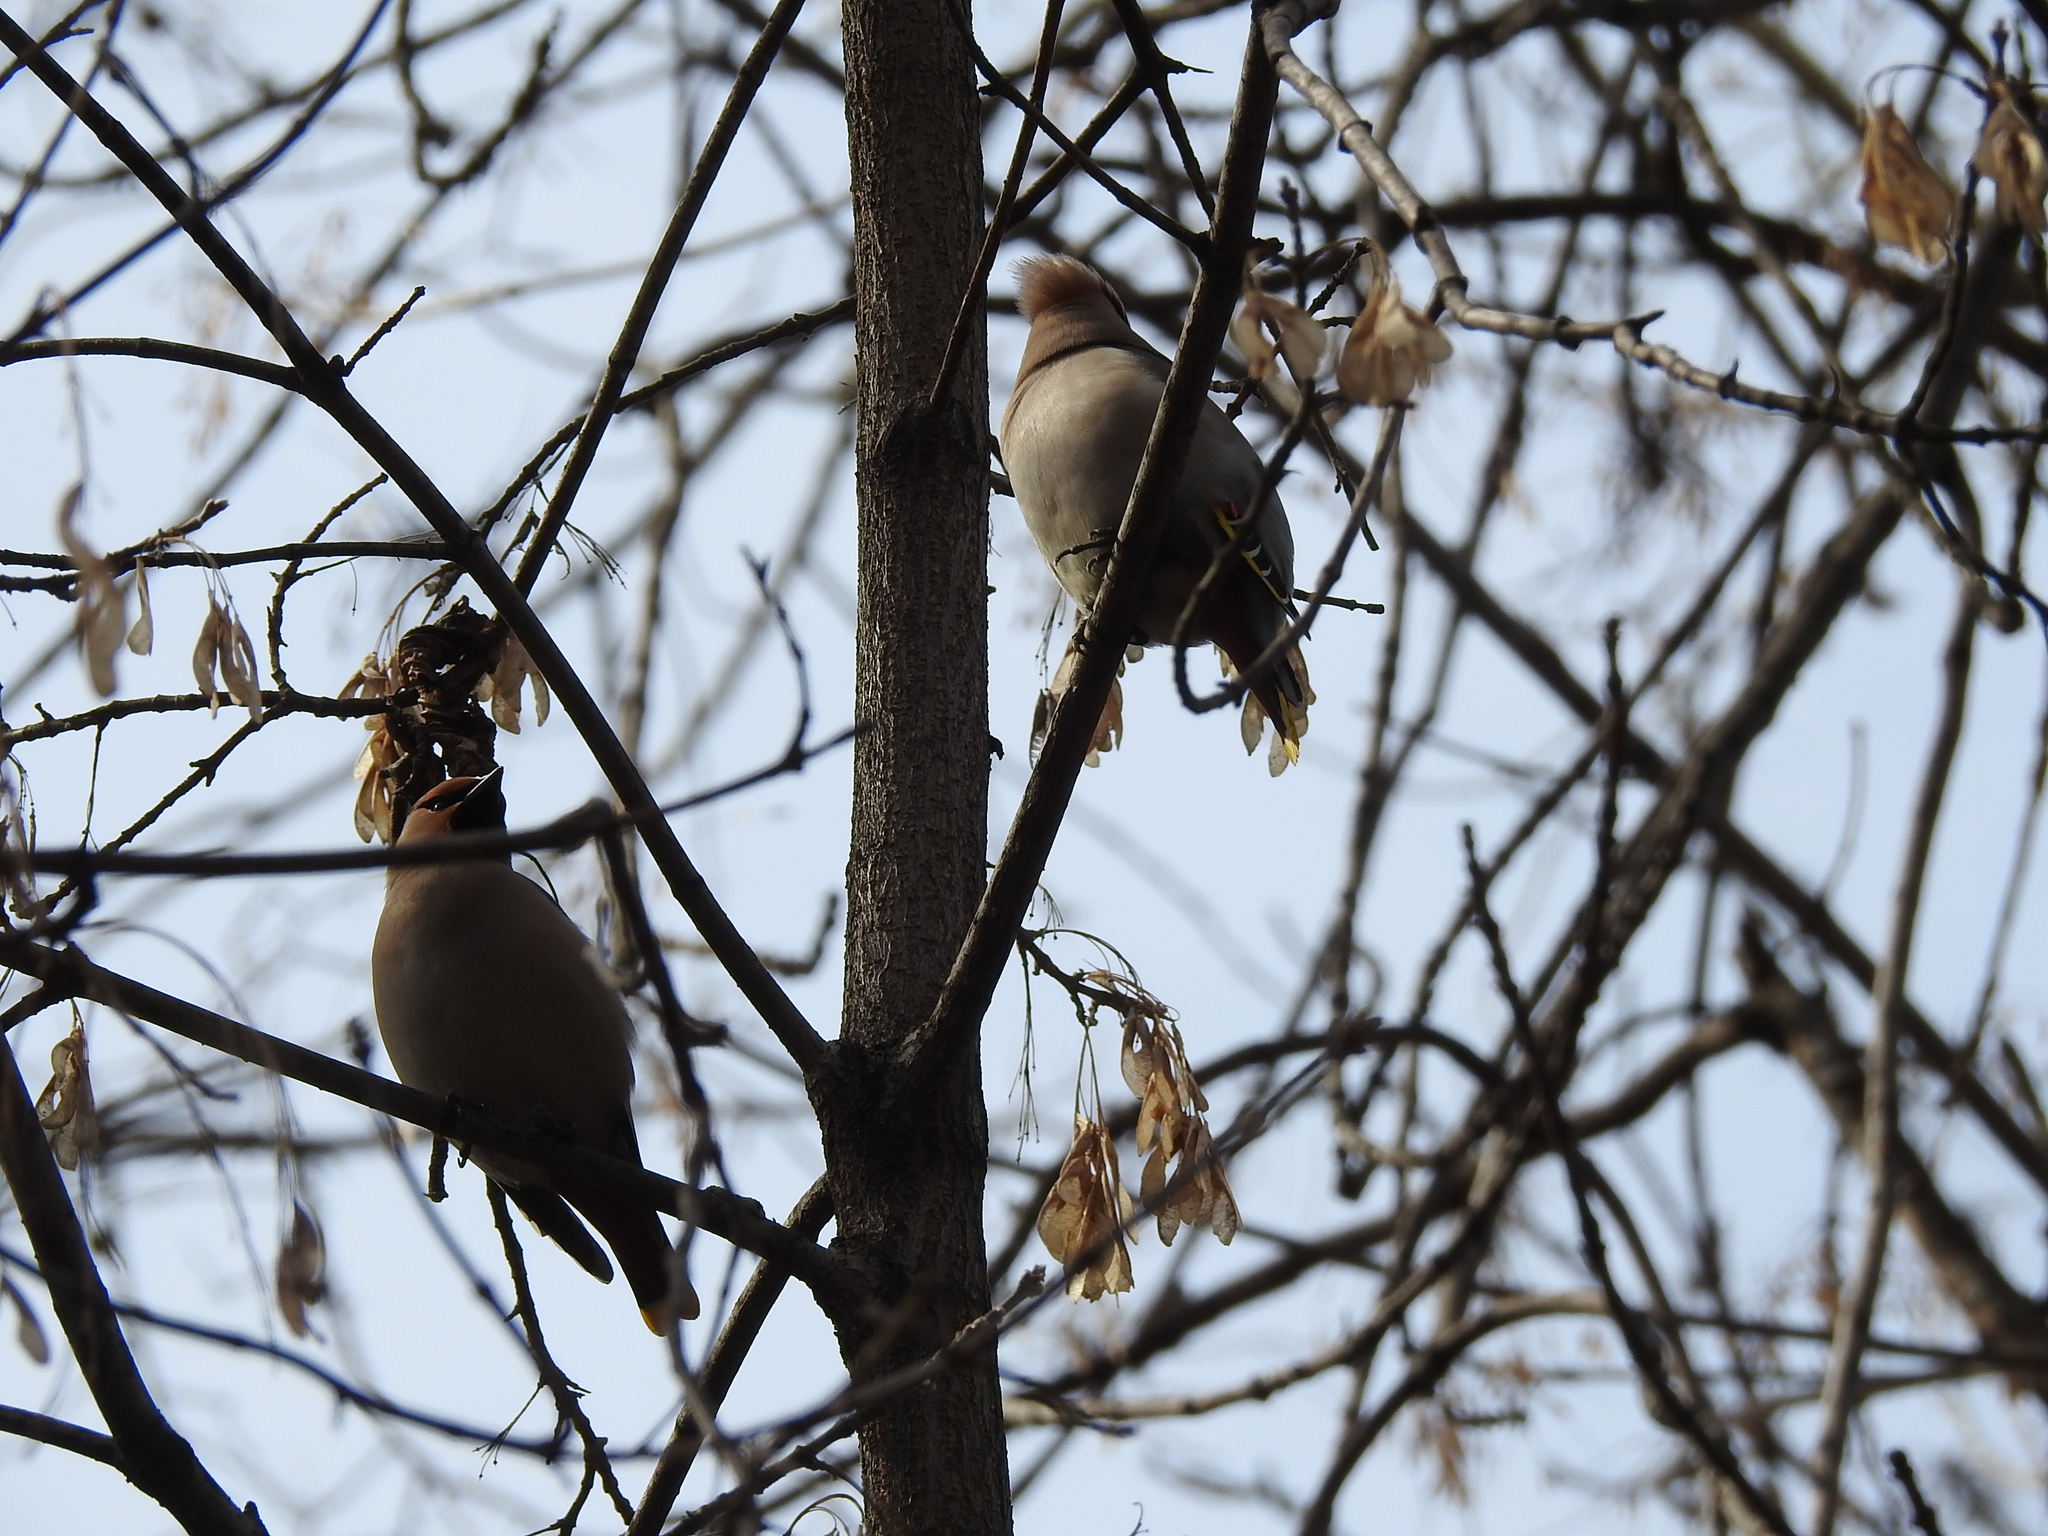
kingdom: Animalia
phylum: Chordata
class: Aves
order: Passeriformes
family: Bombycillidae
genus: Bombycilla
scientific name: Bombycilla garrulus
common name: Bohemian waxwing
